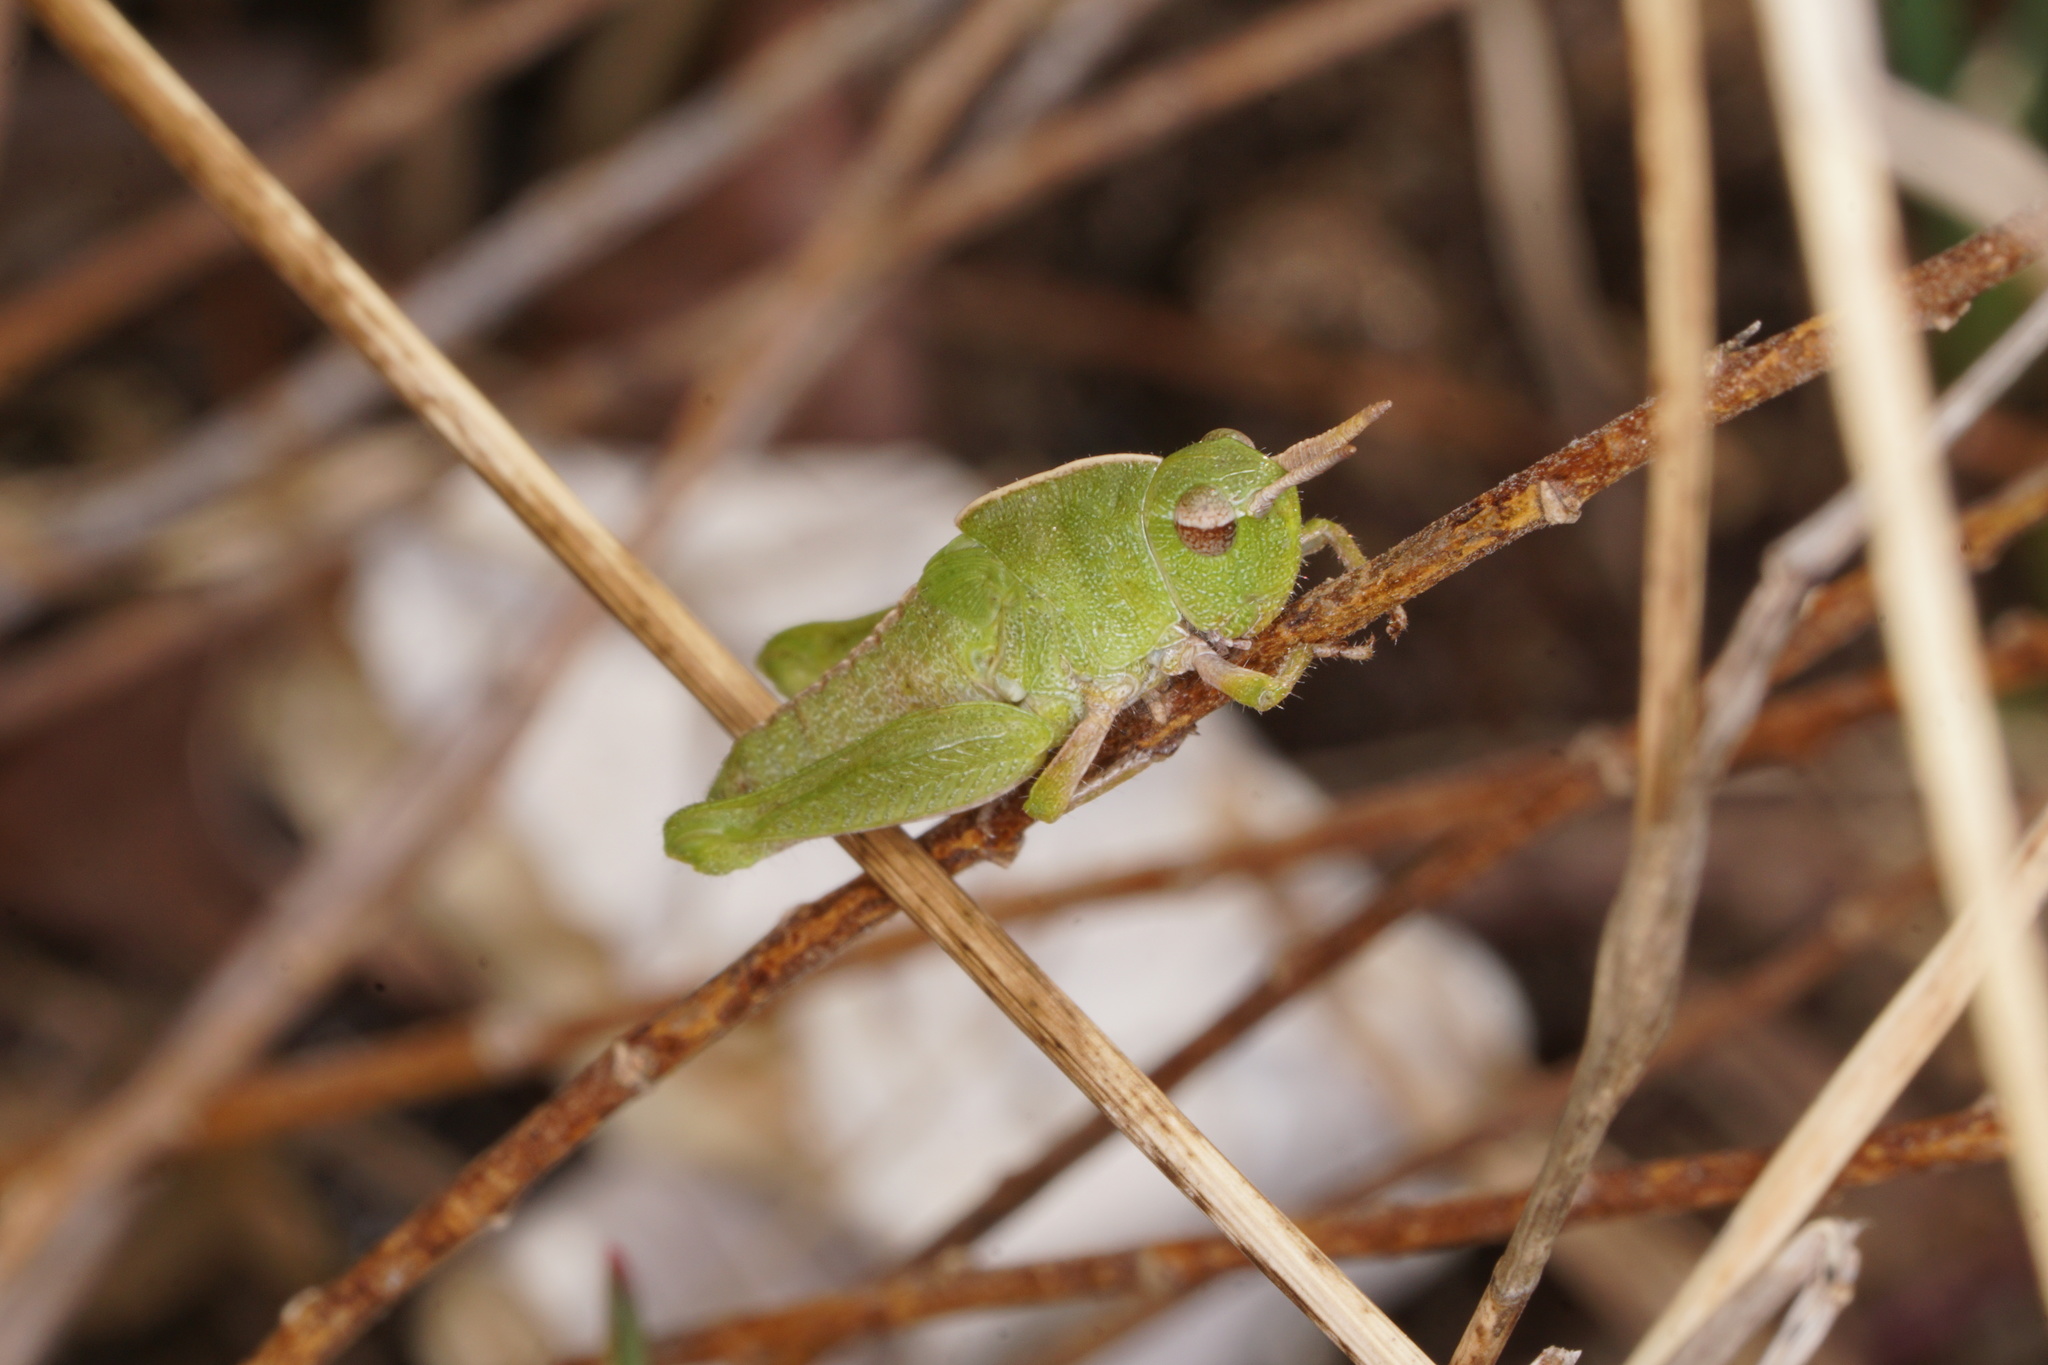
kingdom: Animalia
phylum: Arthropoda
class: Insecta
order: Orthoptera
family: Acrididae
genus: Chortophaga
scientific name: Chortophaga viridifasciata
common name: Green-striped grasshopper
